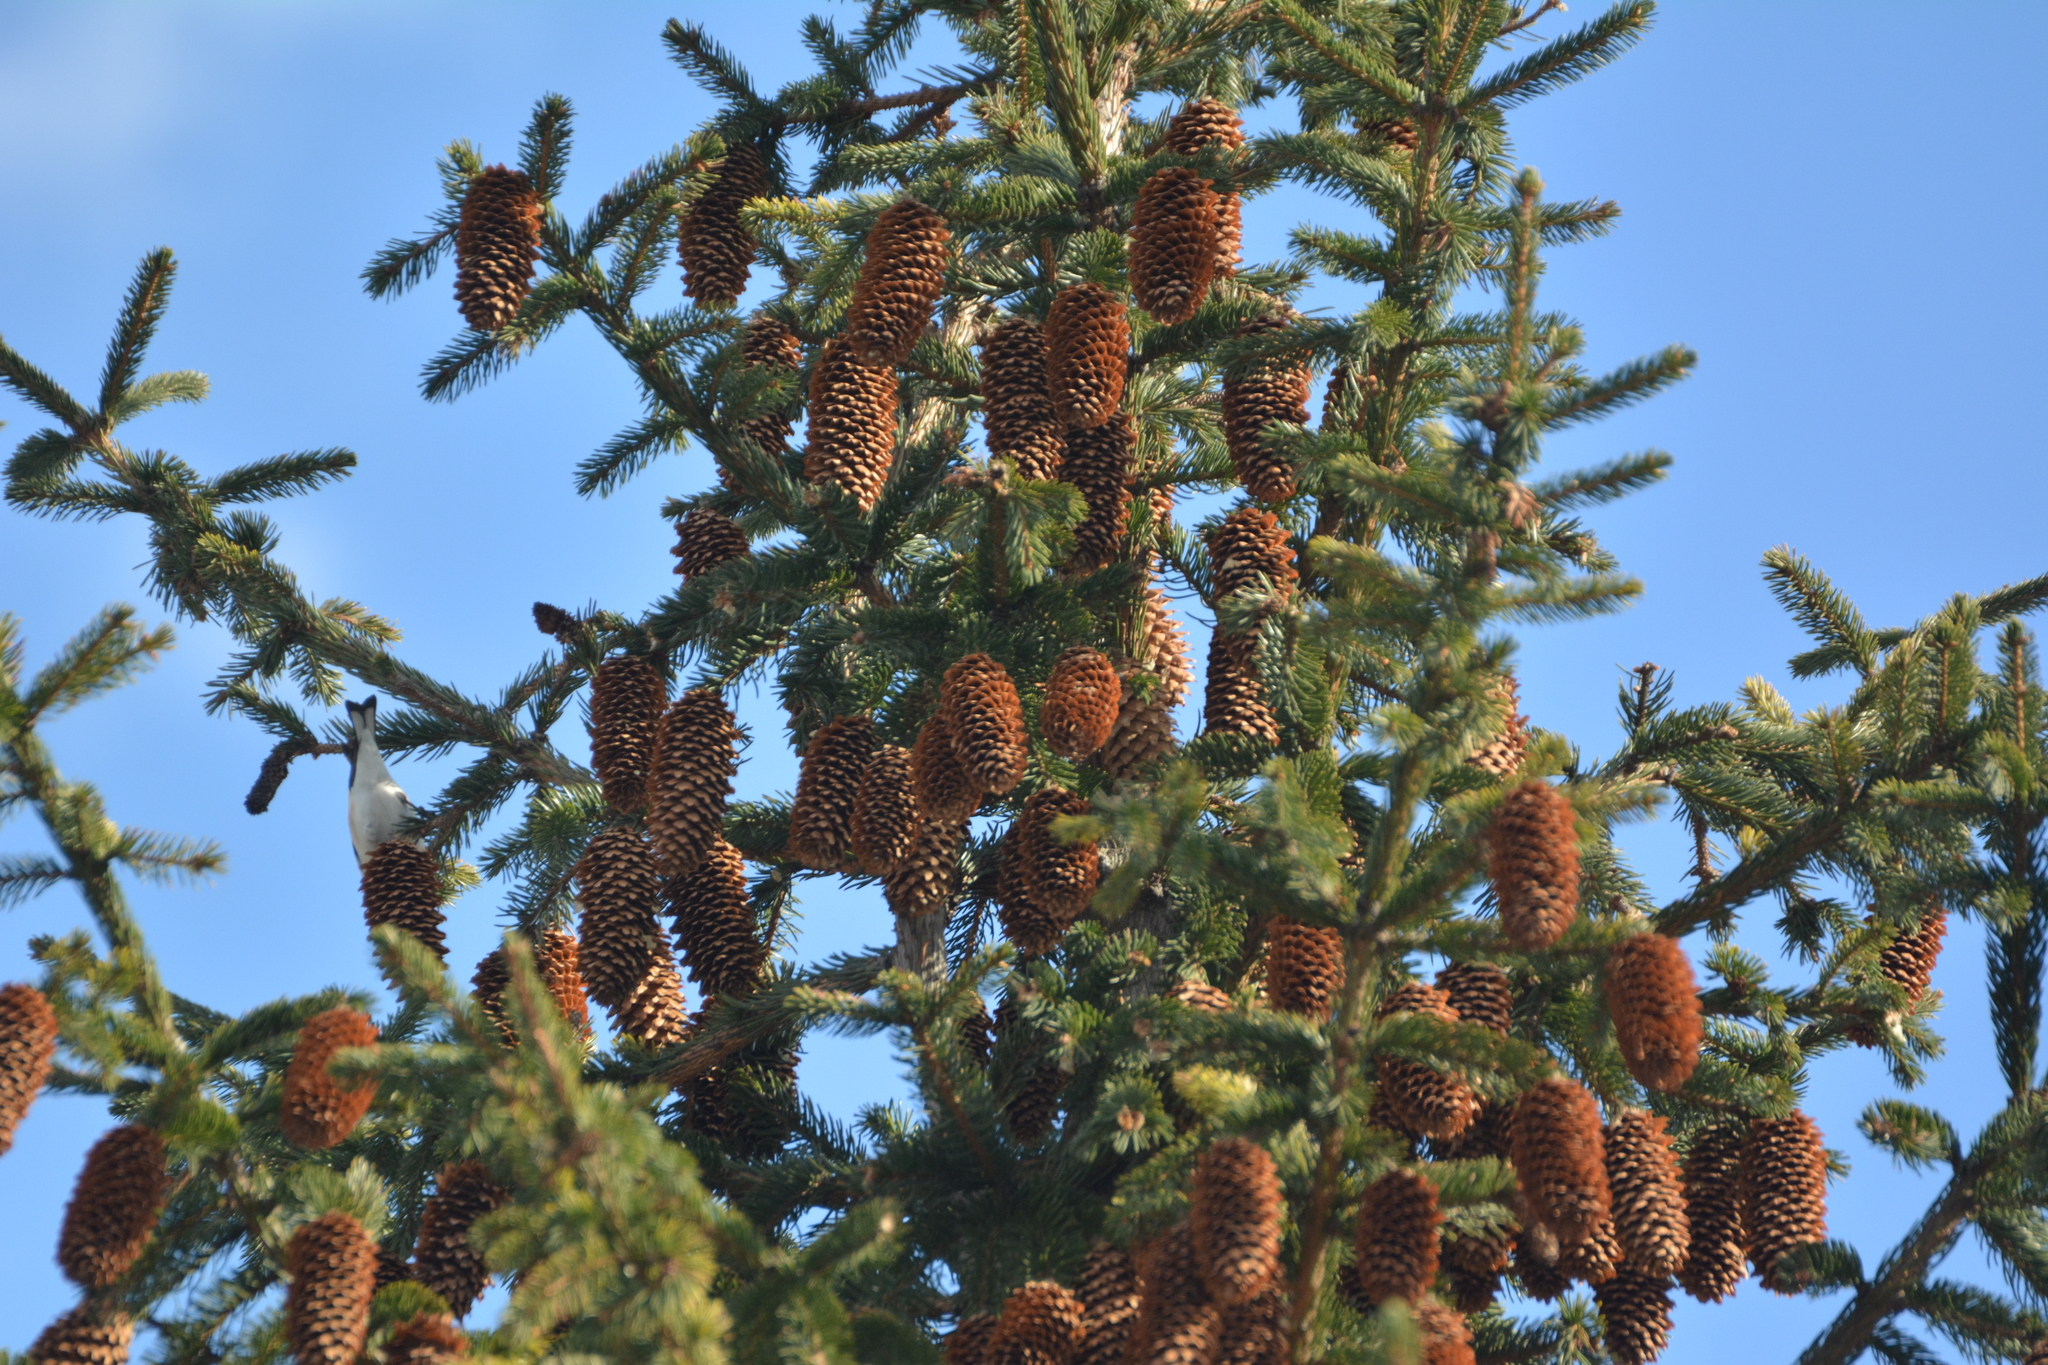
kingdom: Animalia
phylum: Chordata
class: Aves
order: Passeriformes
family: Fringillidae
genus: Carduelis
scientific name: Carduelis carduelis
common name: European goldfinch
